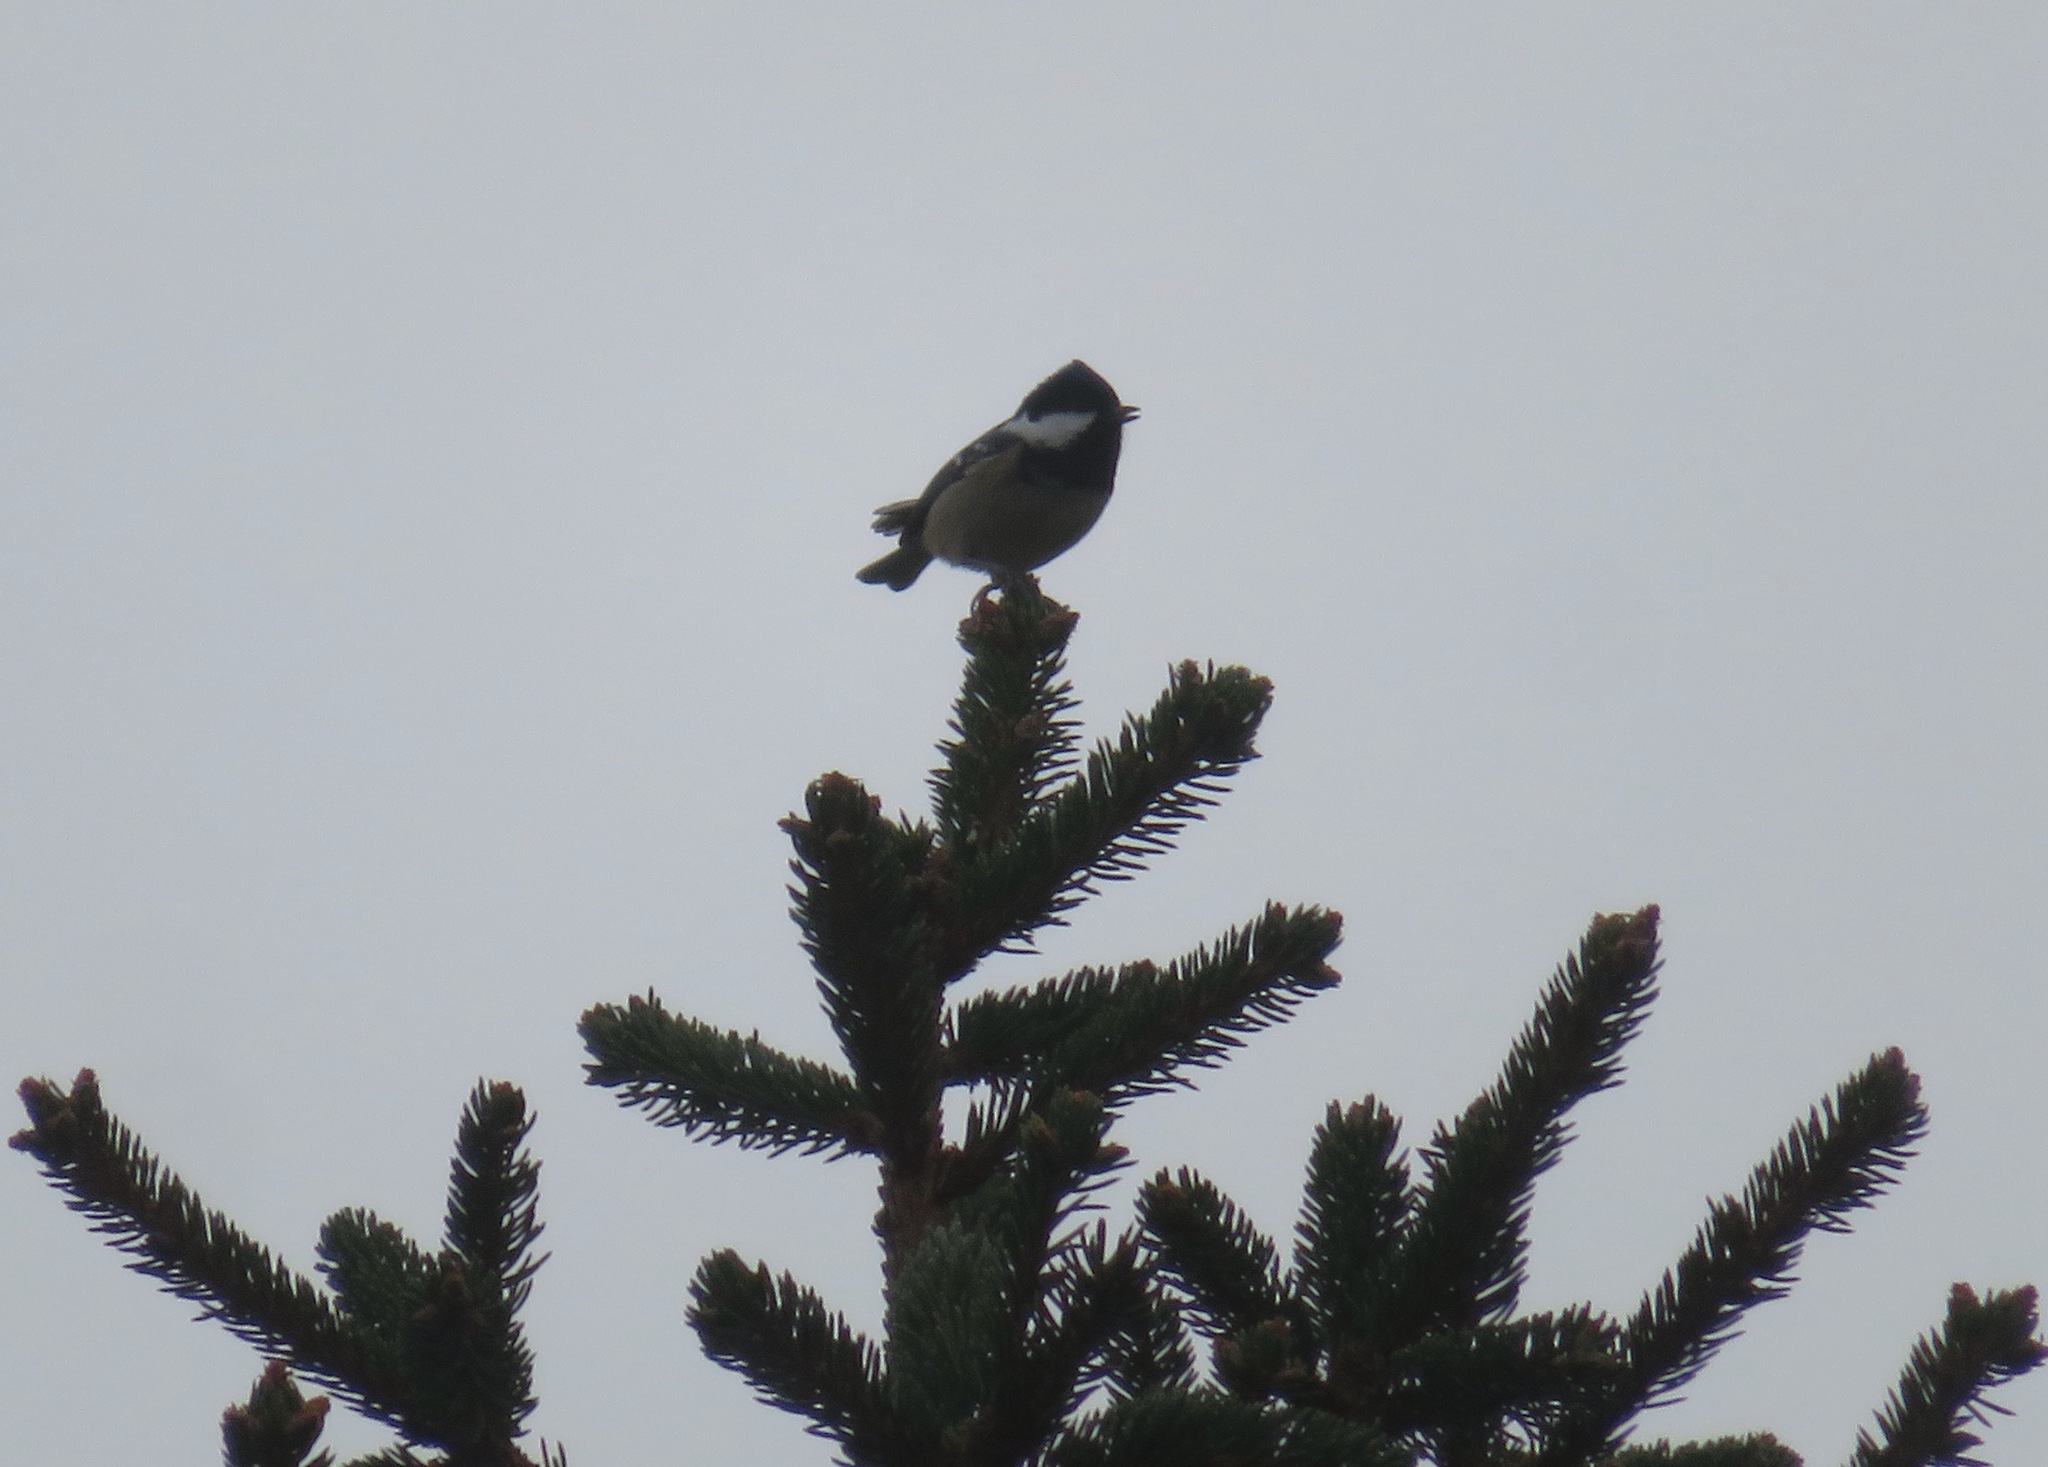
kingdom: Animalia
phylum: Chordata
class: Aves
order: Passeriformes
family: Paridae
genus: Periparus
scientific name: Periparus ater
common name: Coal tit
